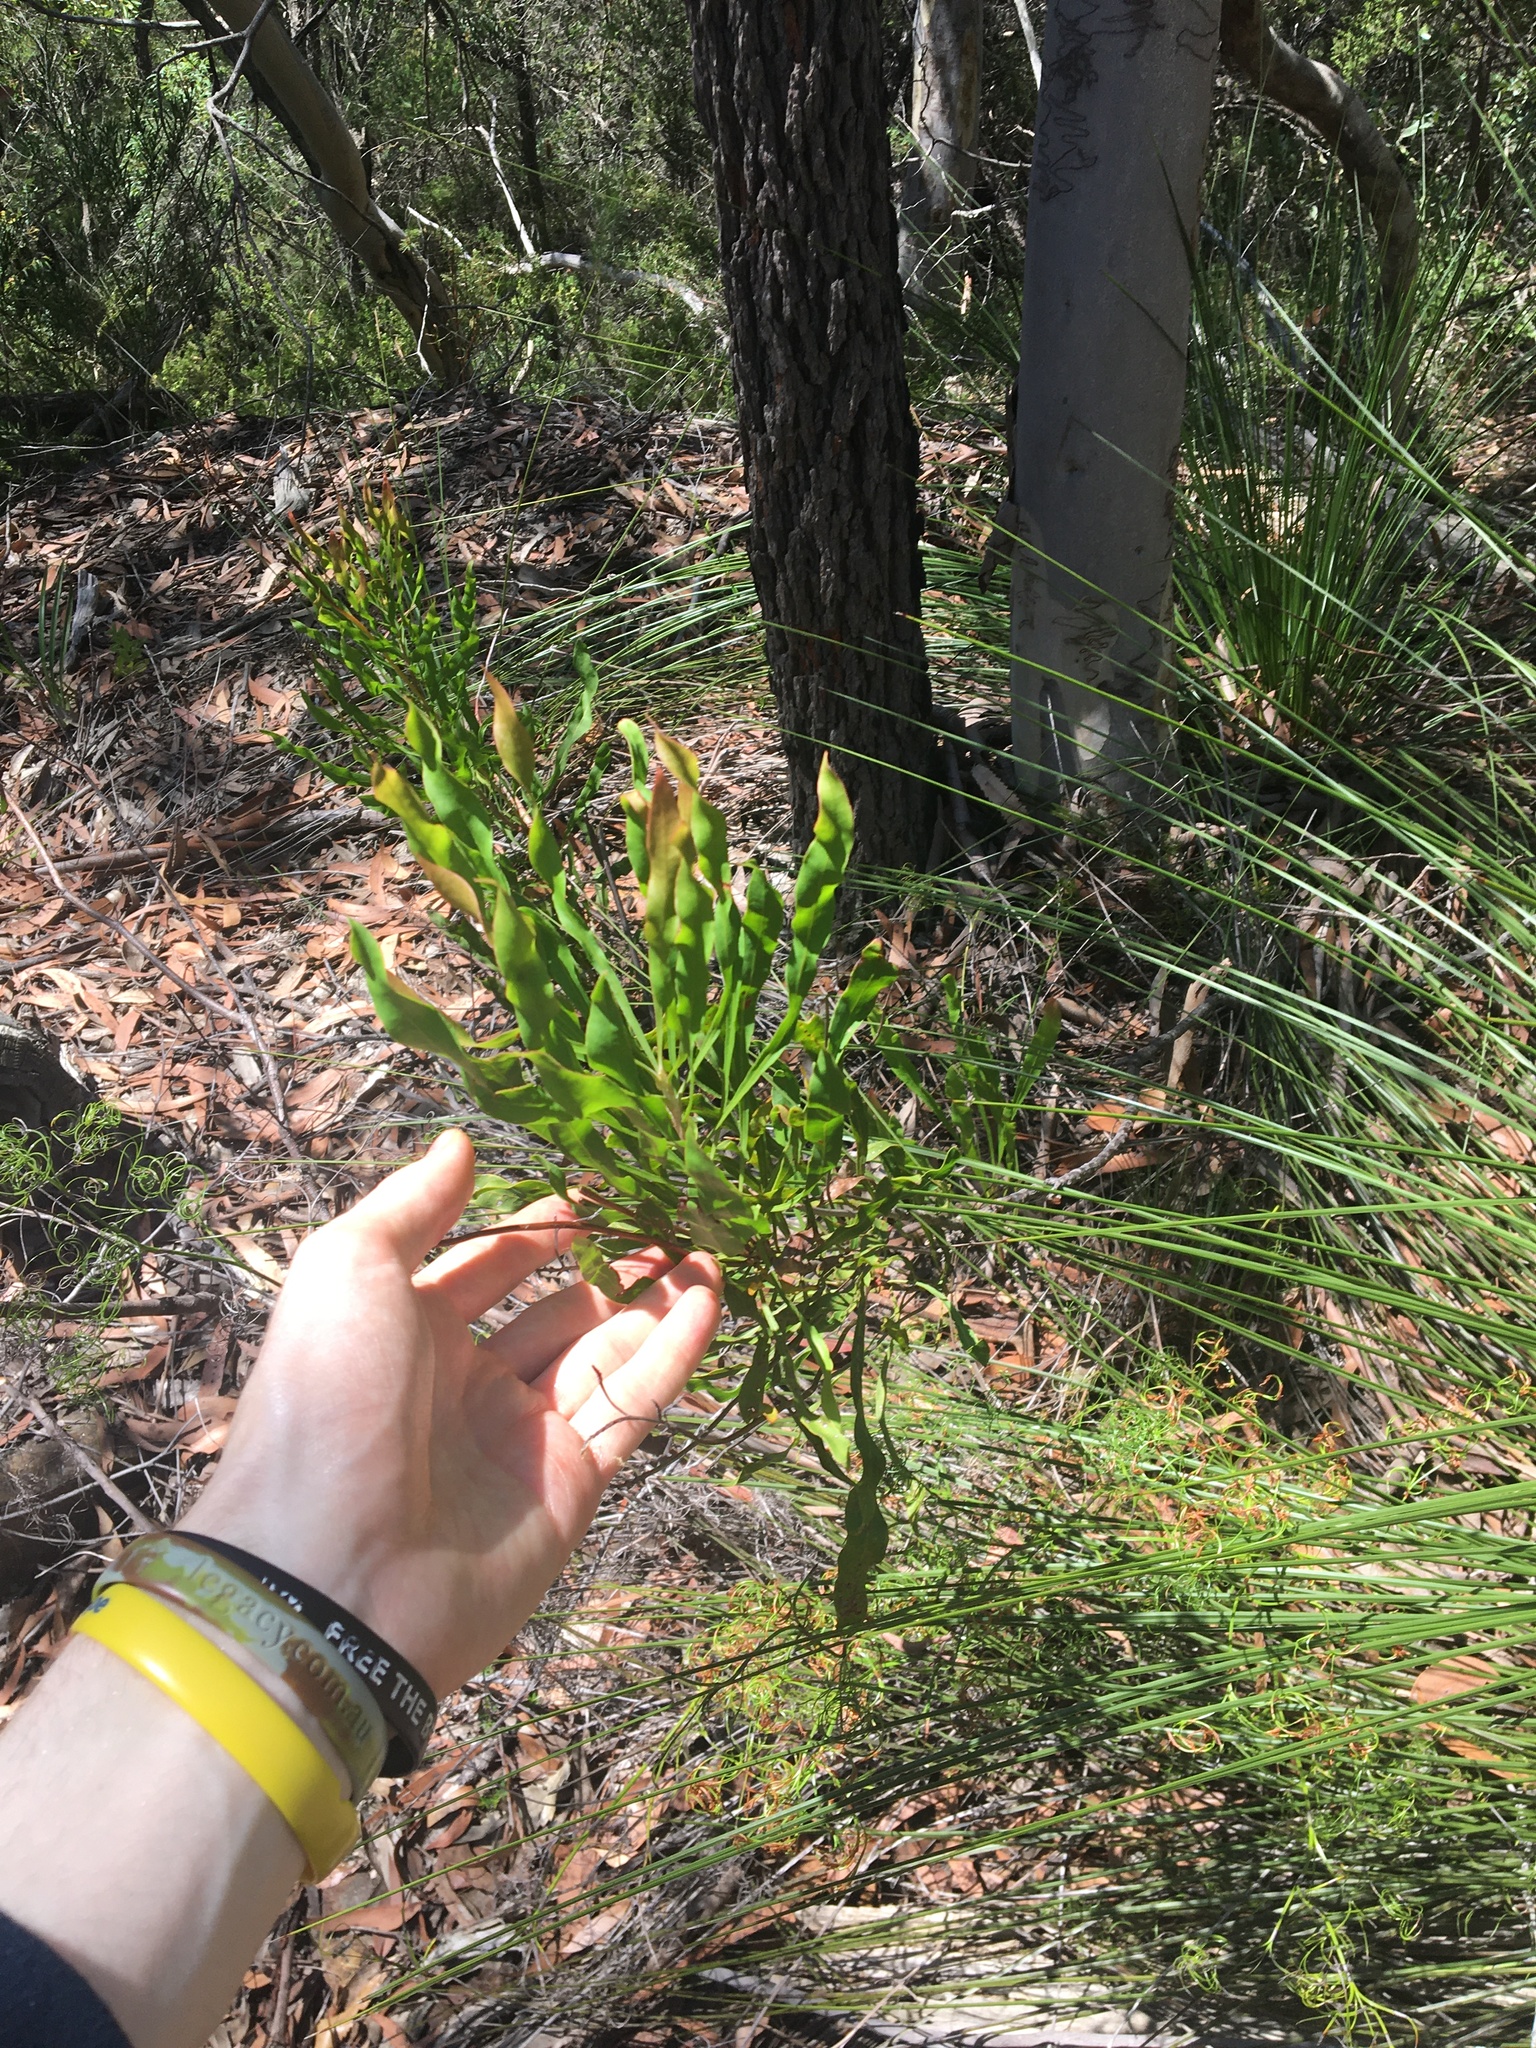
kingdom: Plantae
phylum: Tracheophyta
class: Magnoliopsida
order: Proteales
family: Proteaceae
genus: Conospermum
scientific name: Conospermum longifolium
